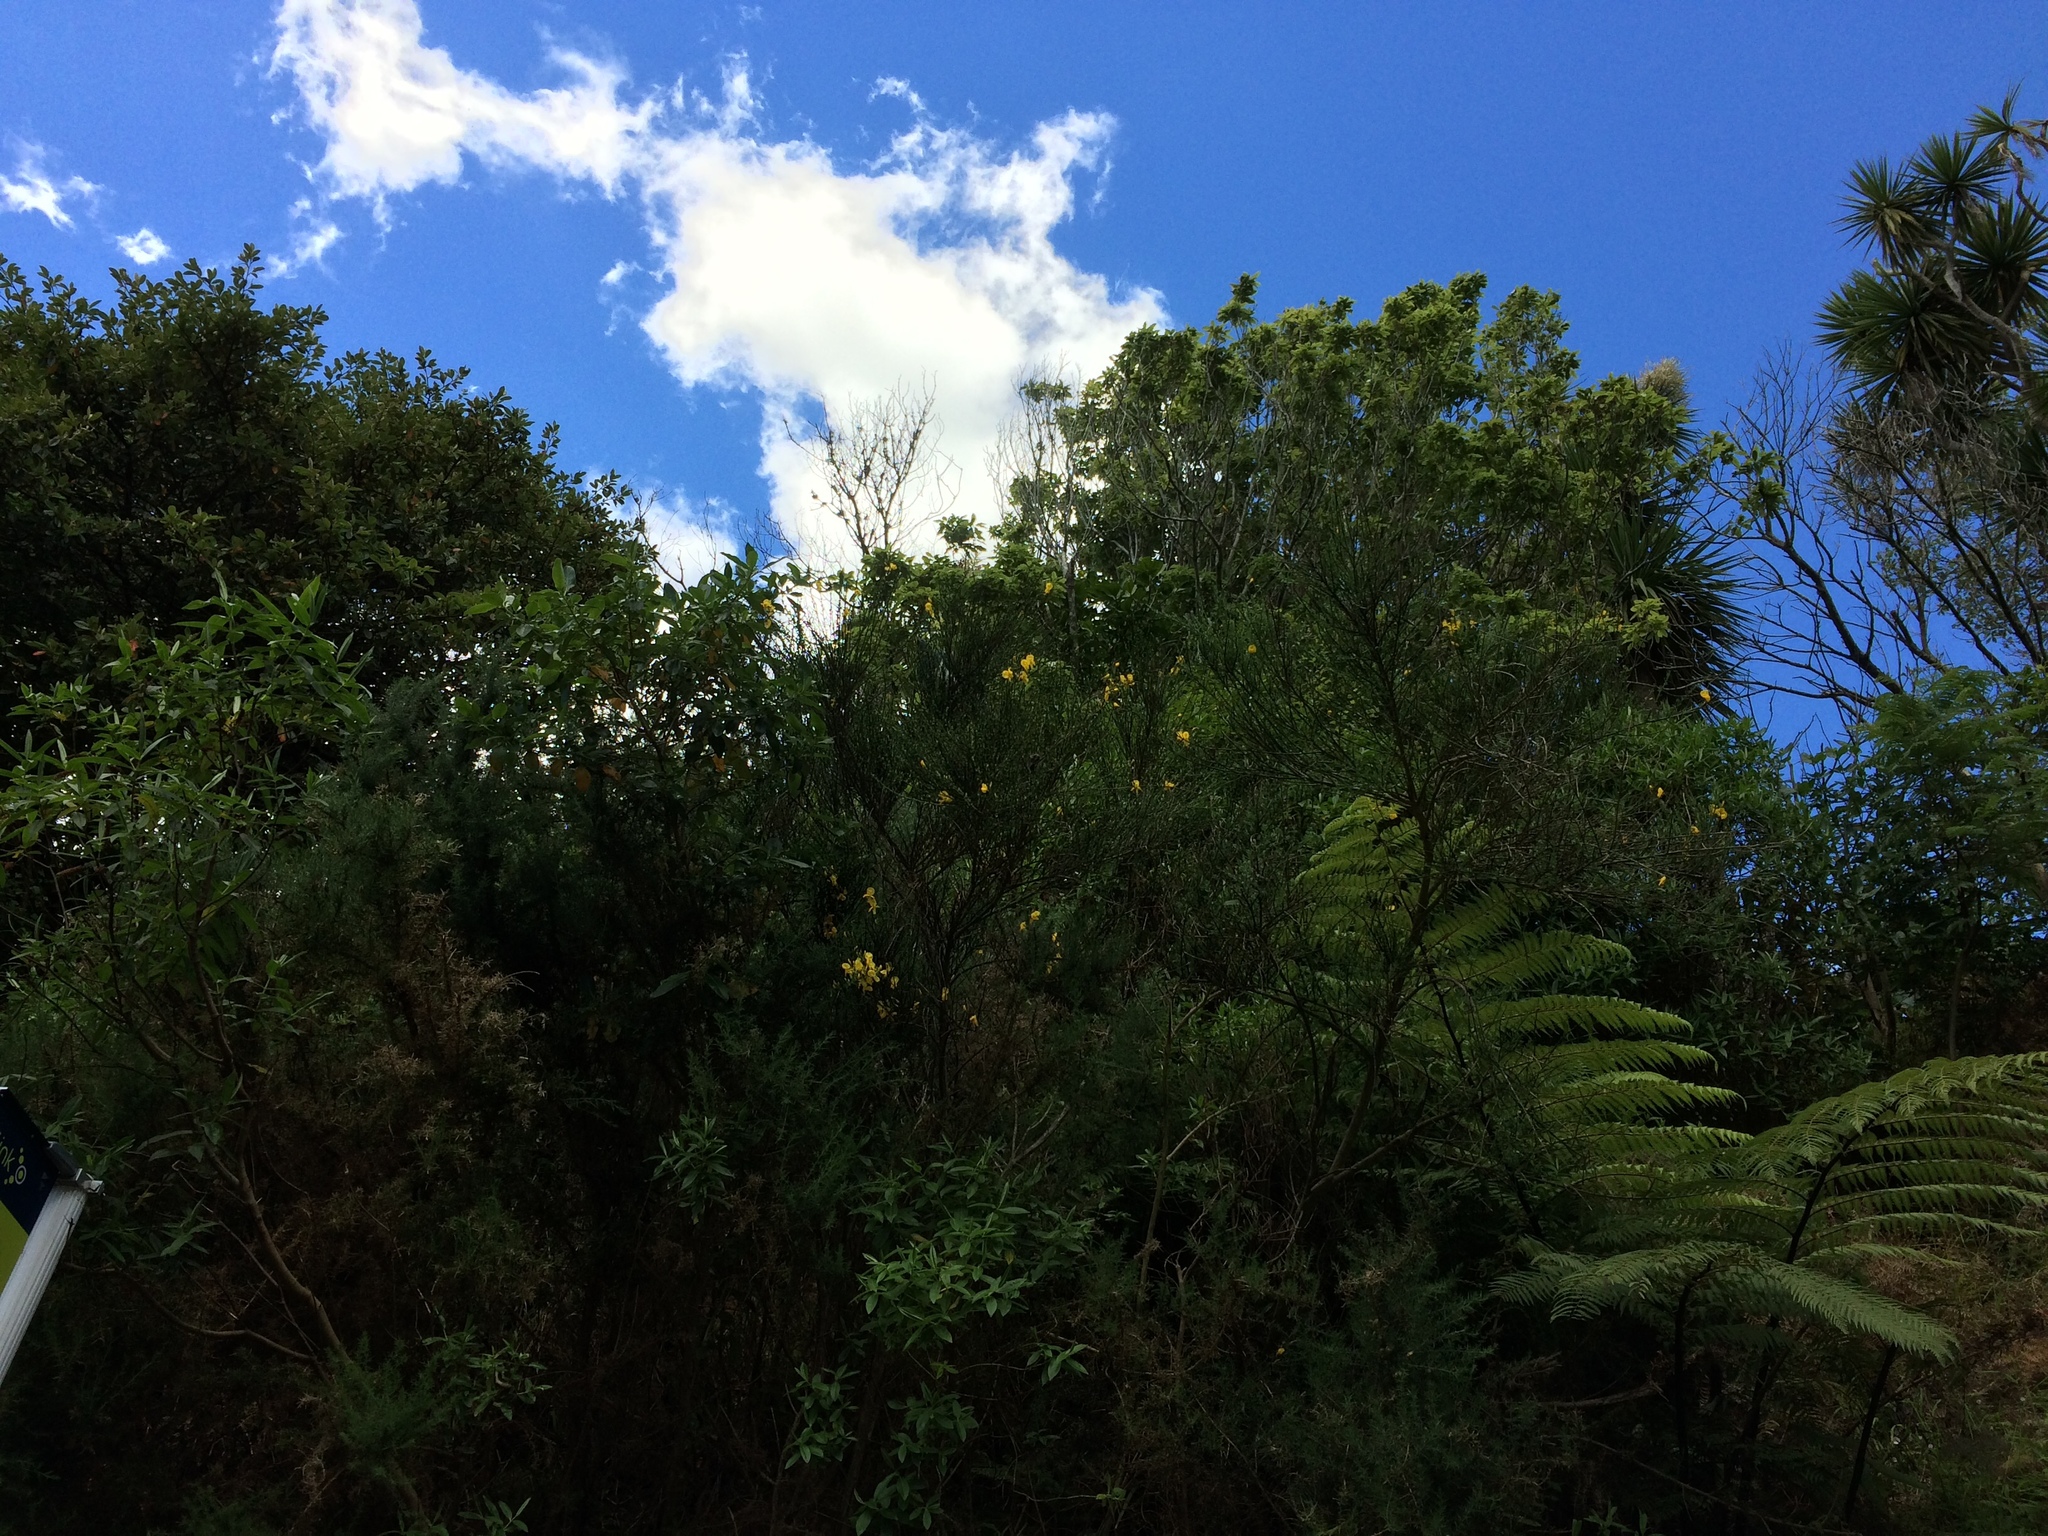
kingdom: Animalia
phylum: Chordata
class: Aves
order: Columbiformes
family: Columbidae
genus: Hemiphaga
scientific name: Hemiphaga novaeseelandiae
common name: New zealand pigeon
